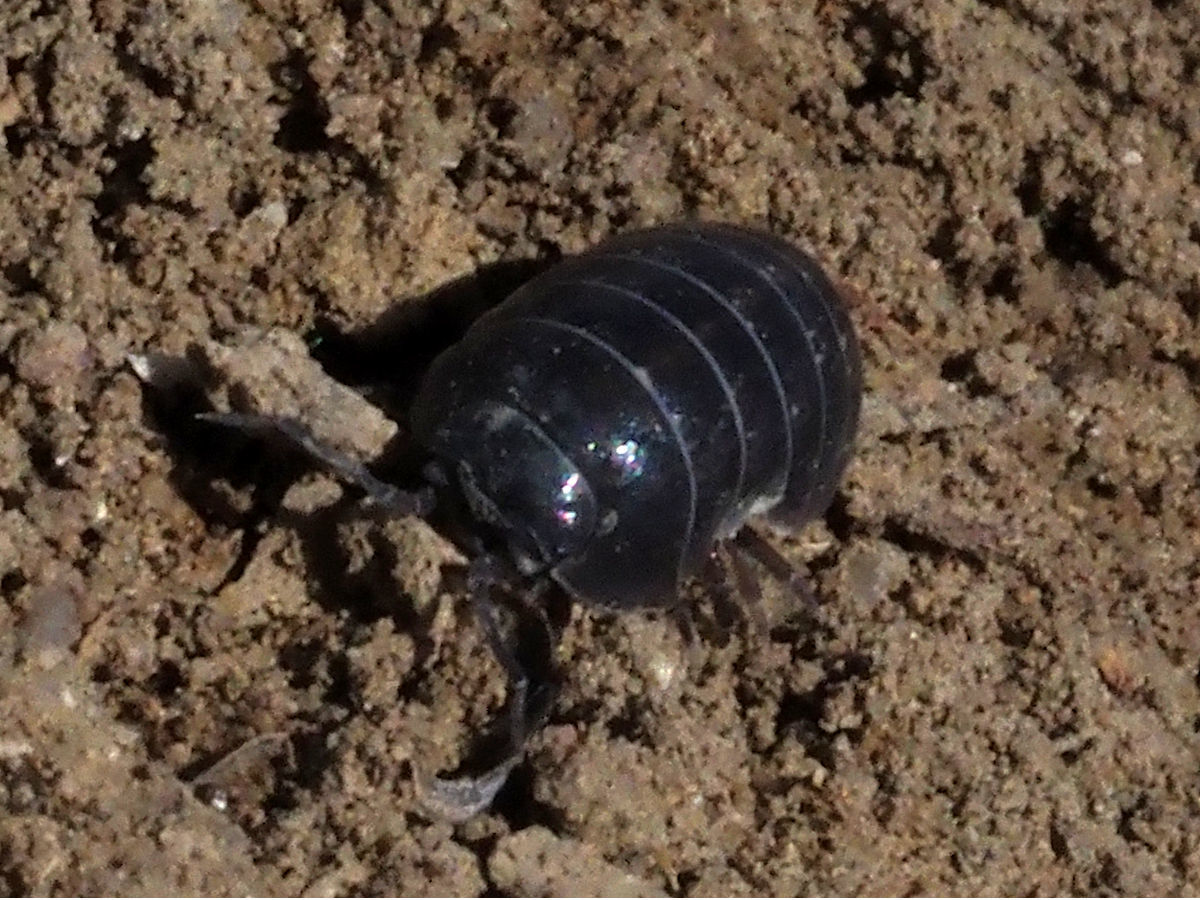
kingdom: Animalia
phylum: Arthropoda
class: Malacostraca
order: Isopoda
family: Armadillidiidae
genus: Armadillidium
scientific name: Armadillidium vulgare
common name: Common pill woodlouse
